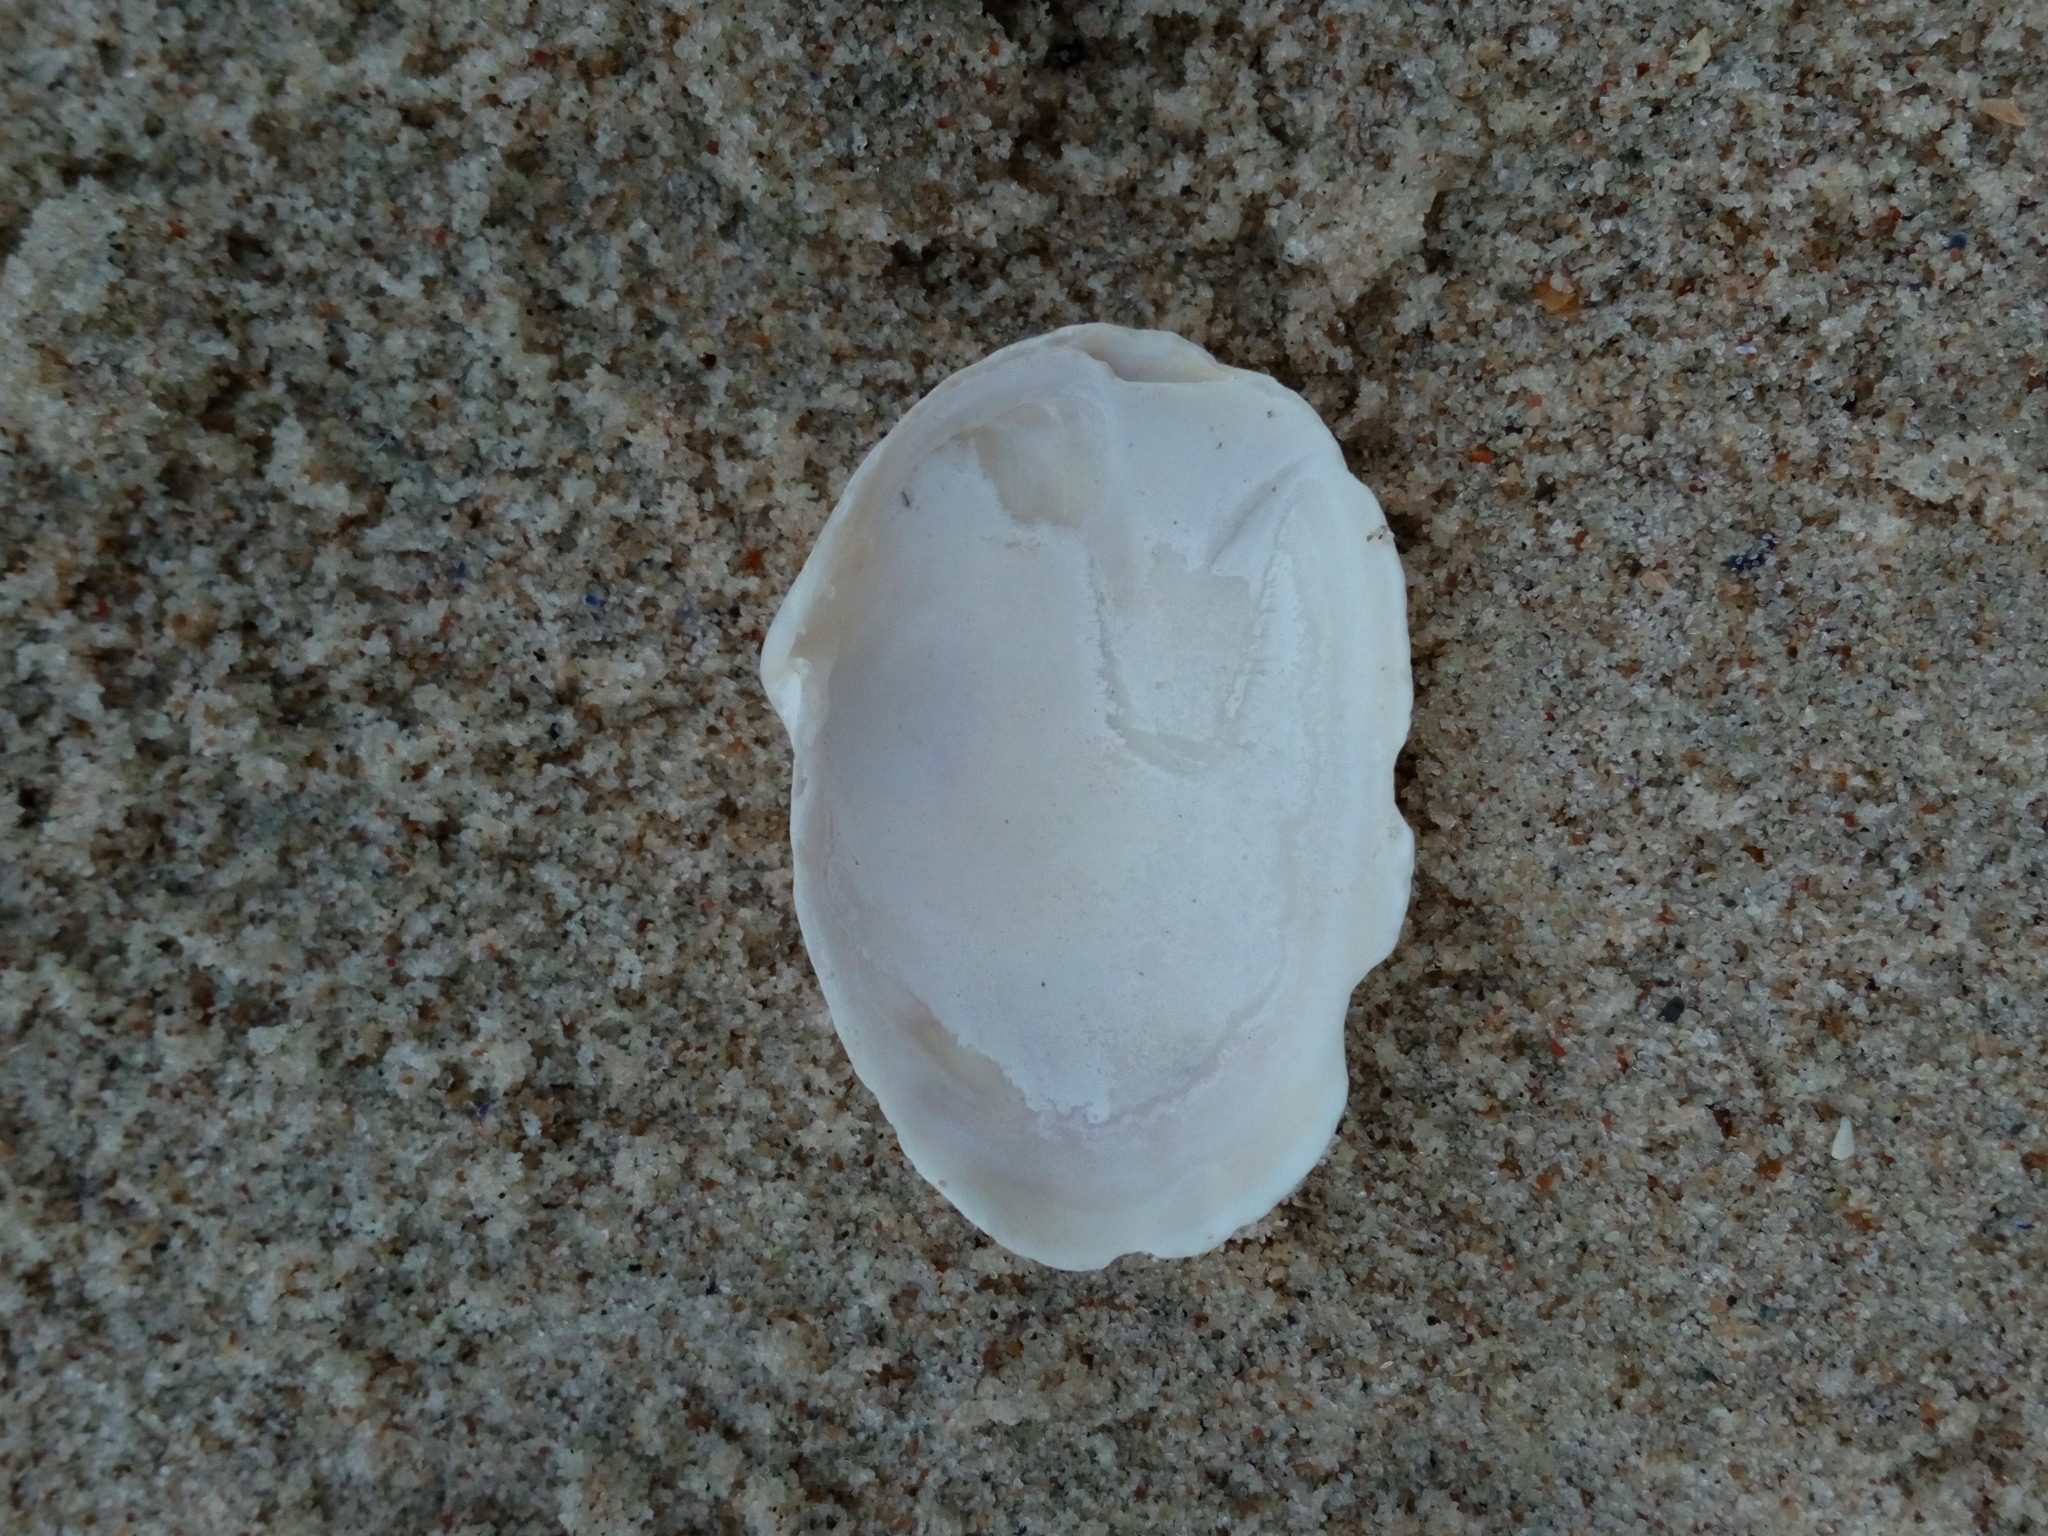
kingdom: Animalia
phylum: Mollusca
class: Bivalvia
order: Myida
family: Myidae
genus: Mya
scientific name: Mya arenaria
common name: Soft-shelled clam
